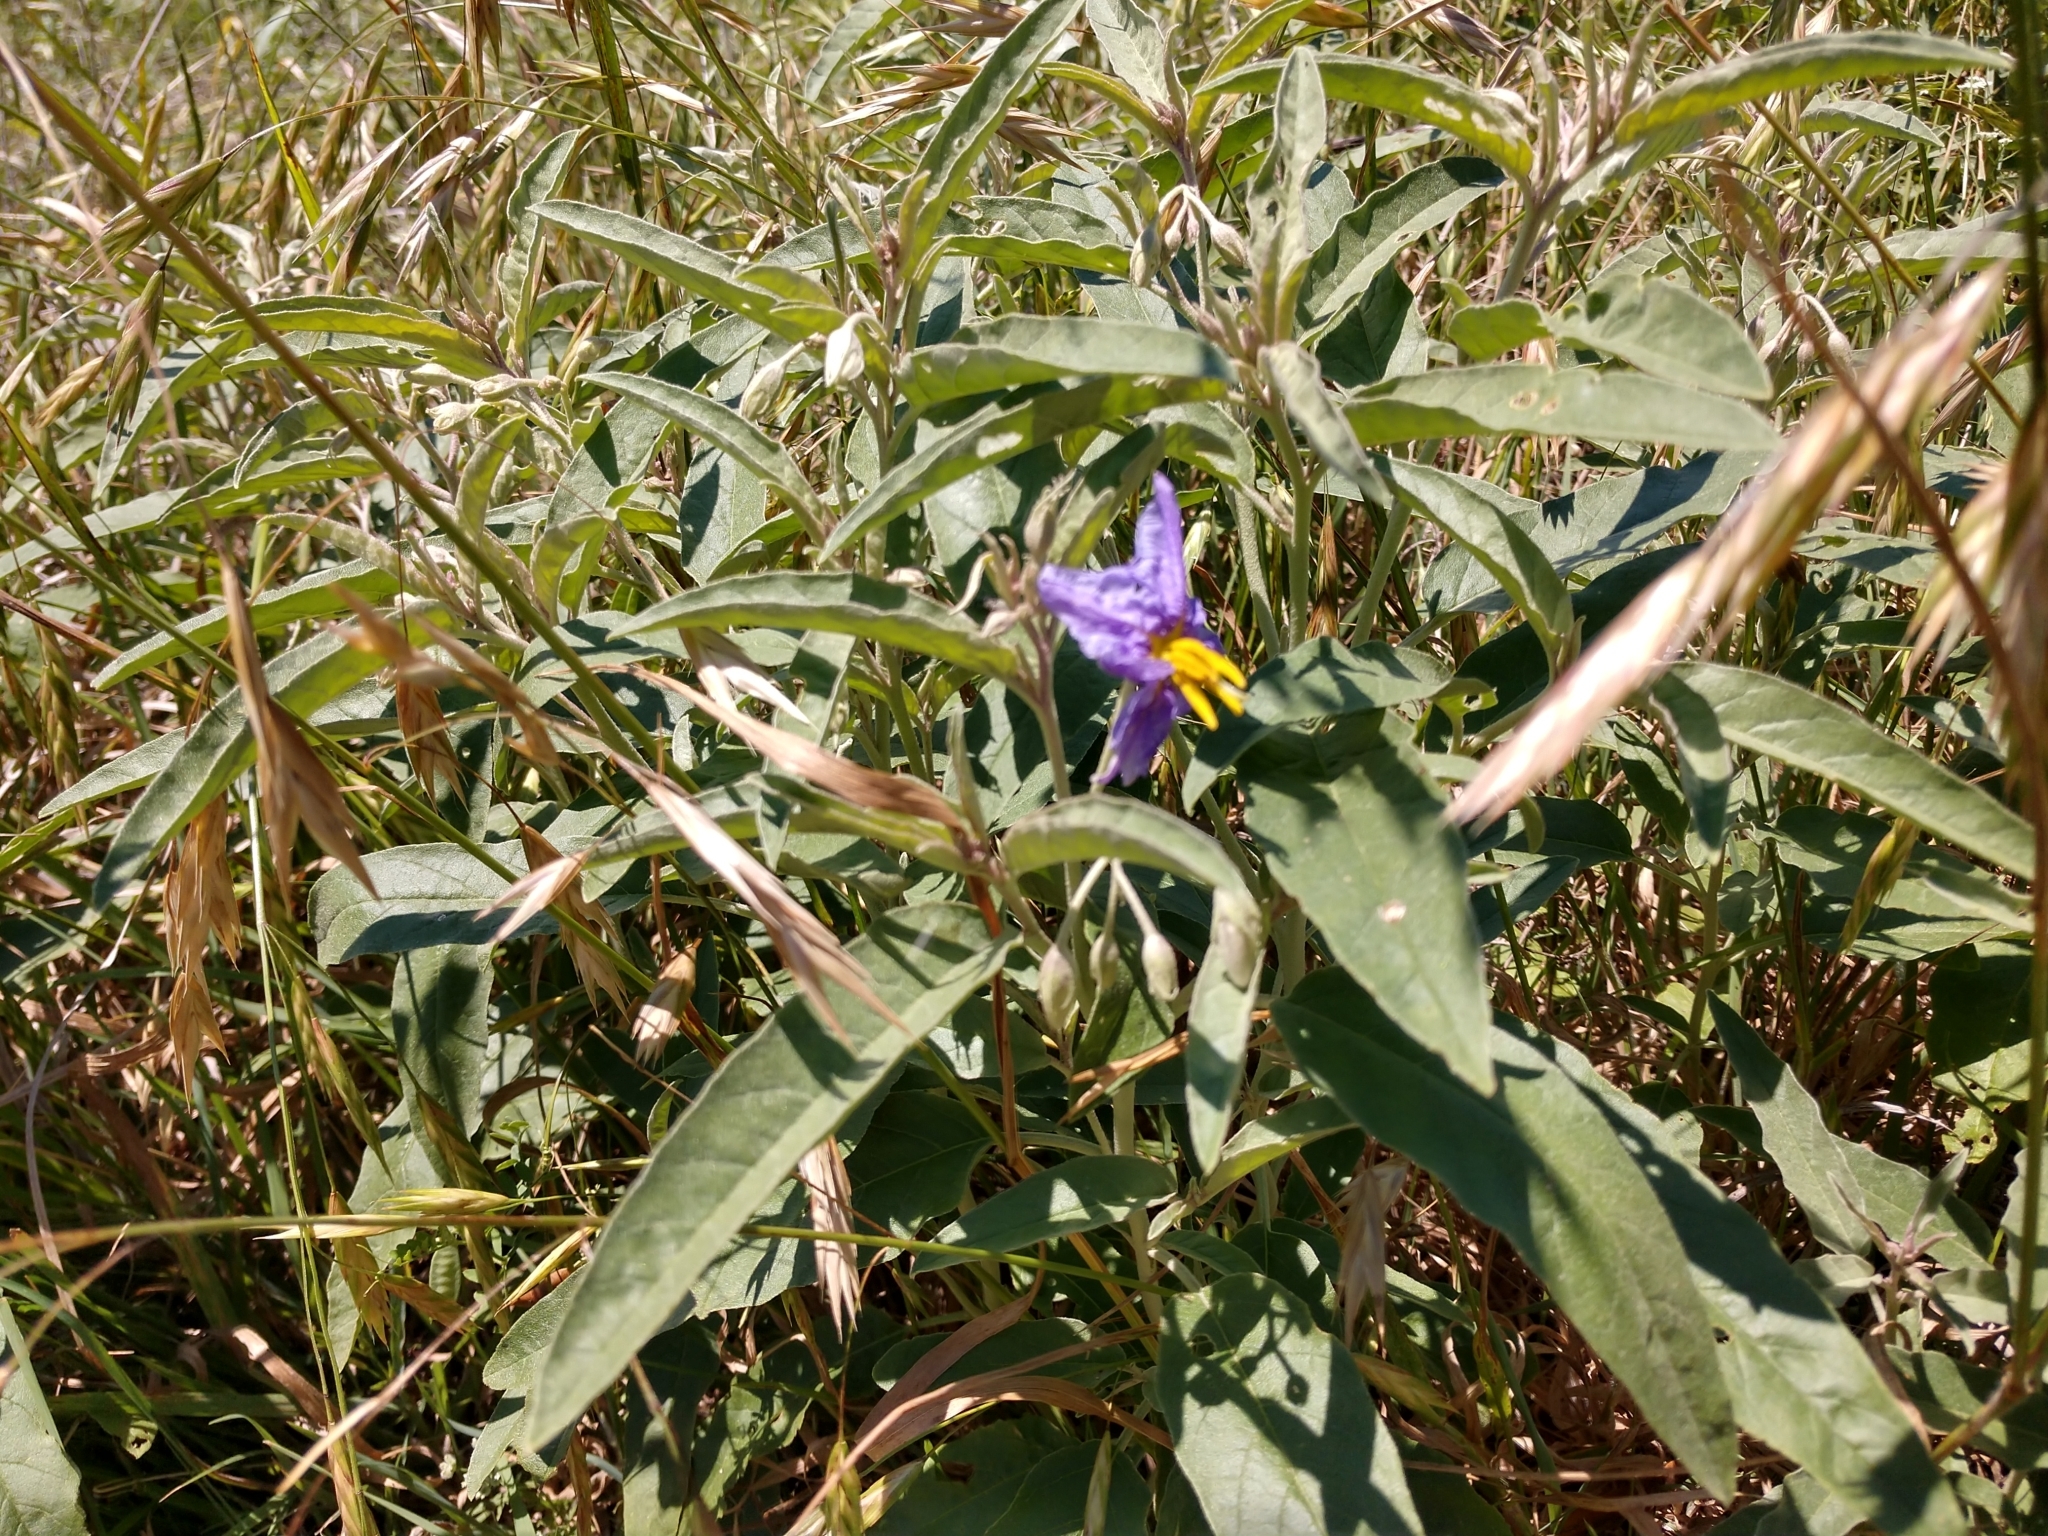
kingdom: Plantae
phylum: Tracheophyta
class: Magnoliopsida
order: Solanales
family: Solanaceae
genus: Solanum
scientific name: Solanum elaeagnifolium
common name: Silverleaf nightshade
